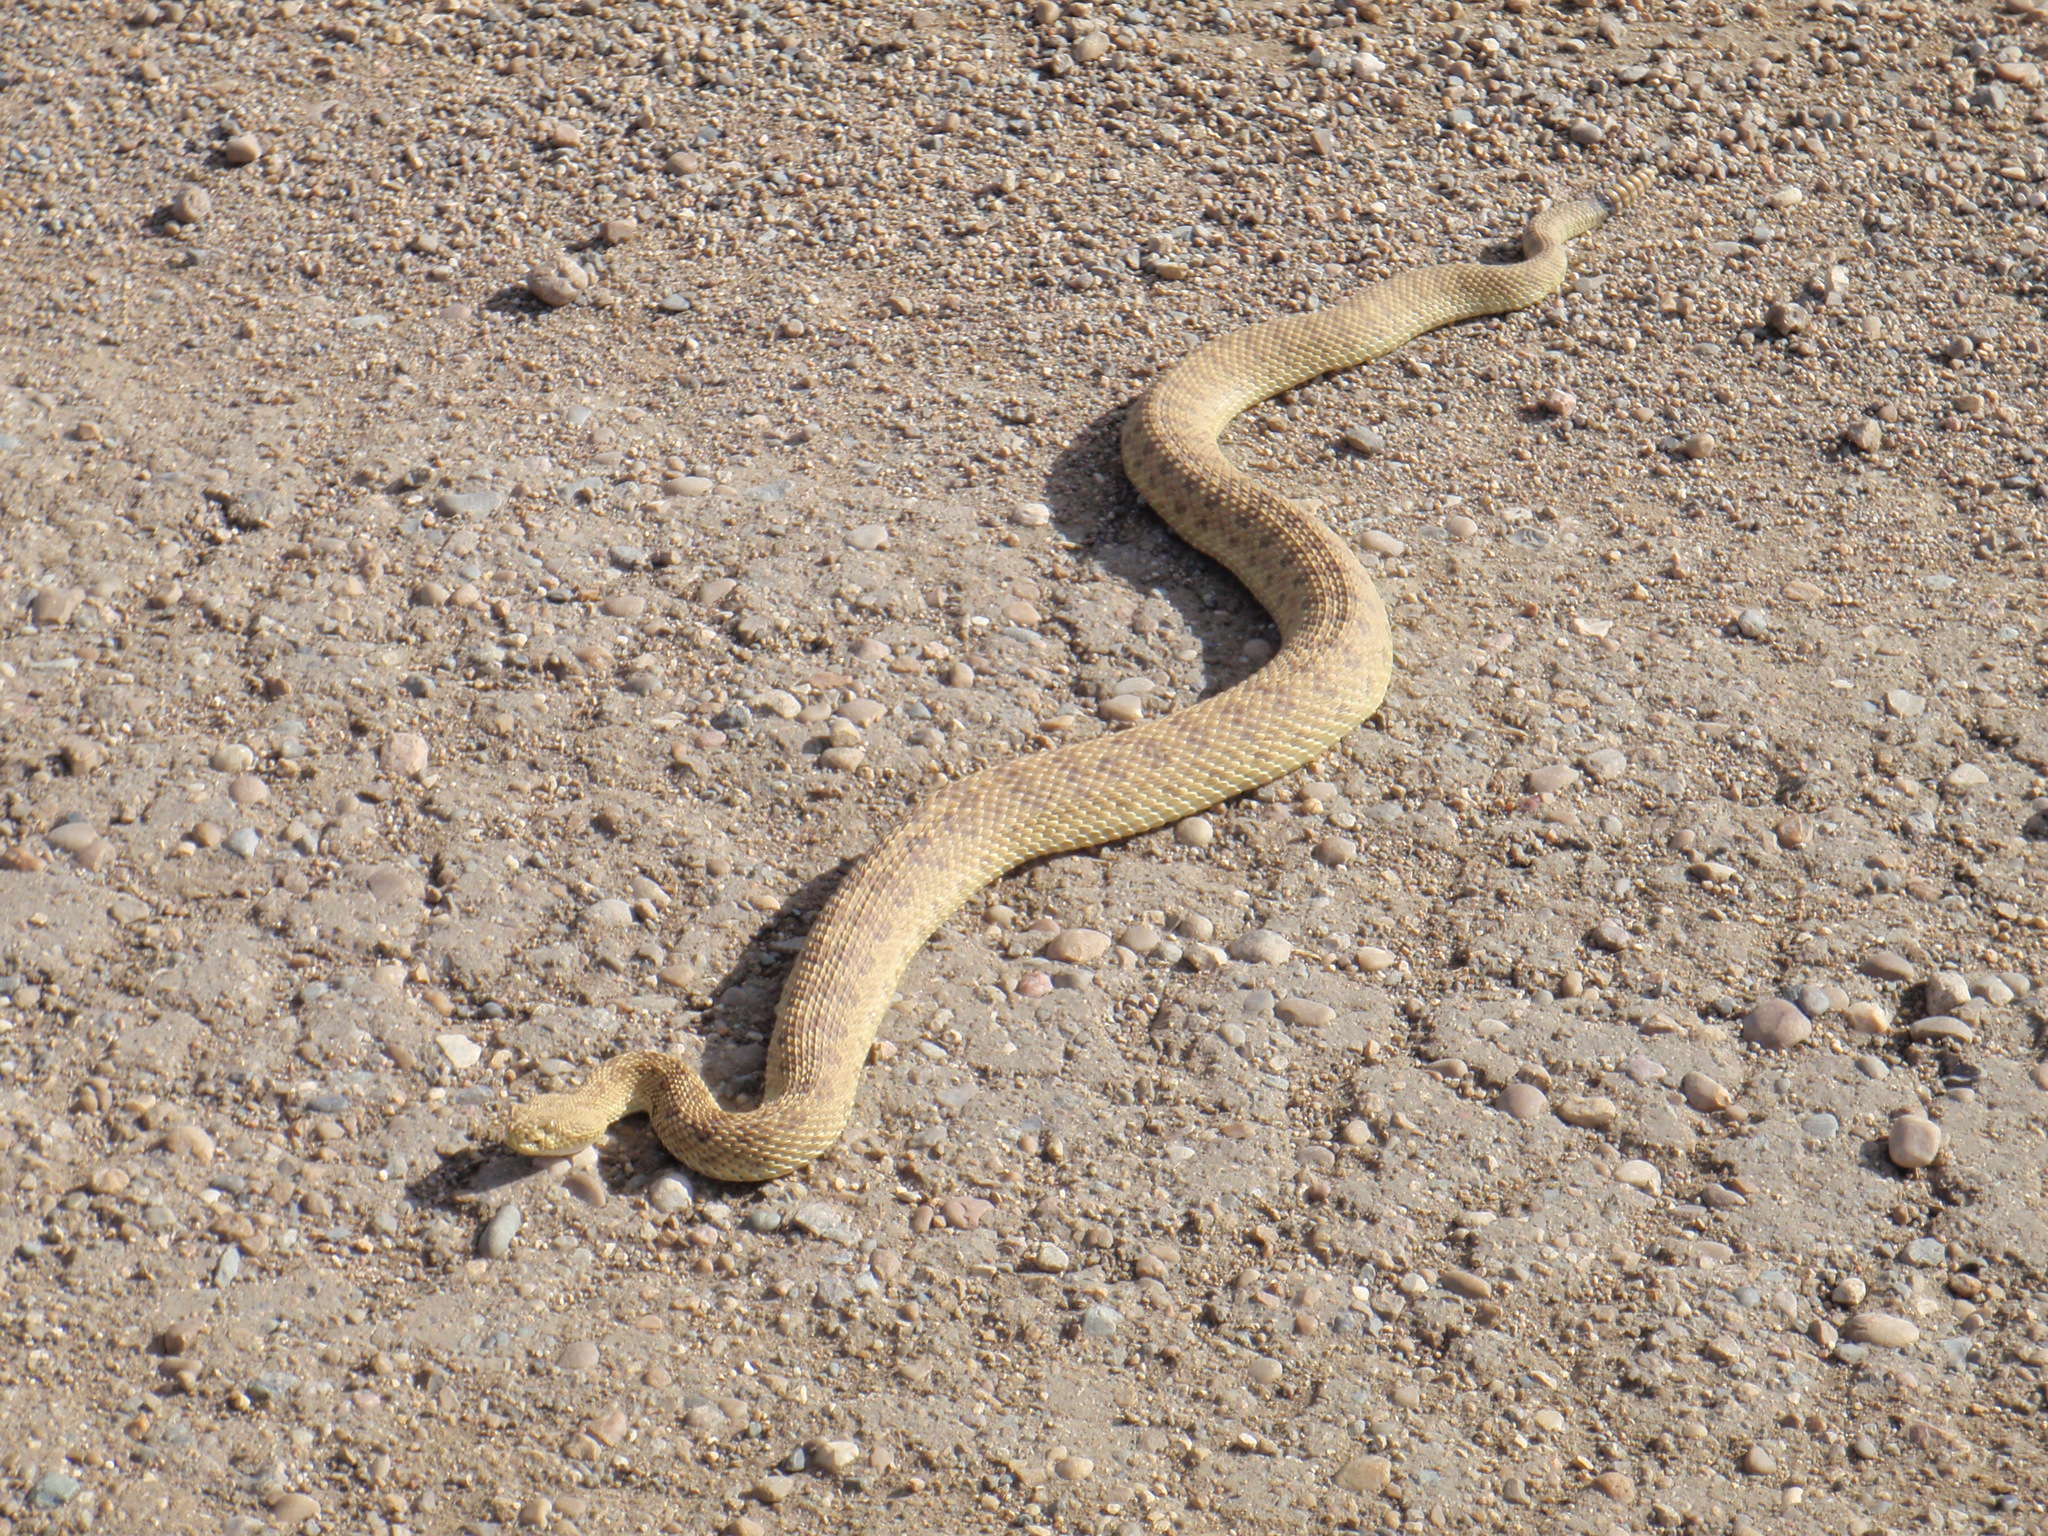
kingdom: Animalia
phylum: Chordata
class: Squamata
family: Viperidae
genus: Crotalus
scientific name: Crotalus viridis
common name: Prairie rattlesnake
